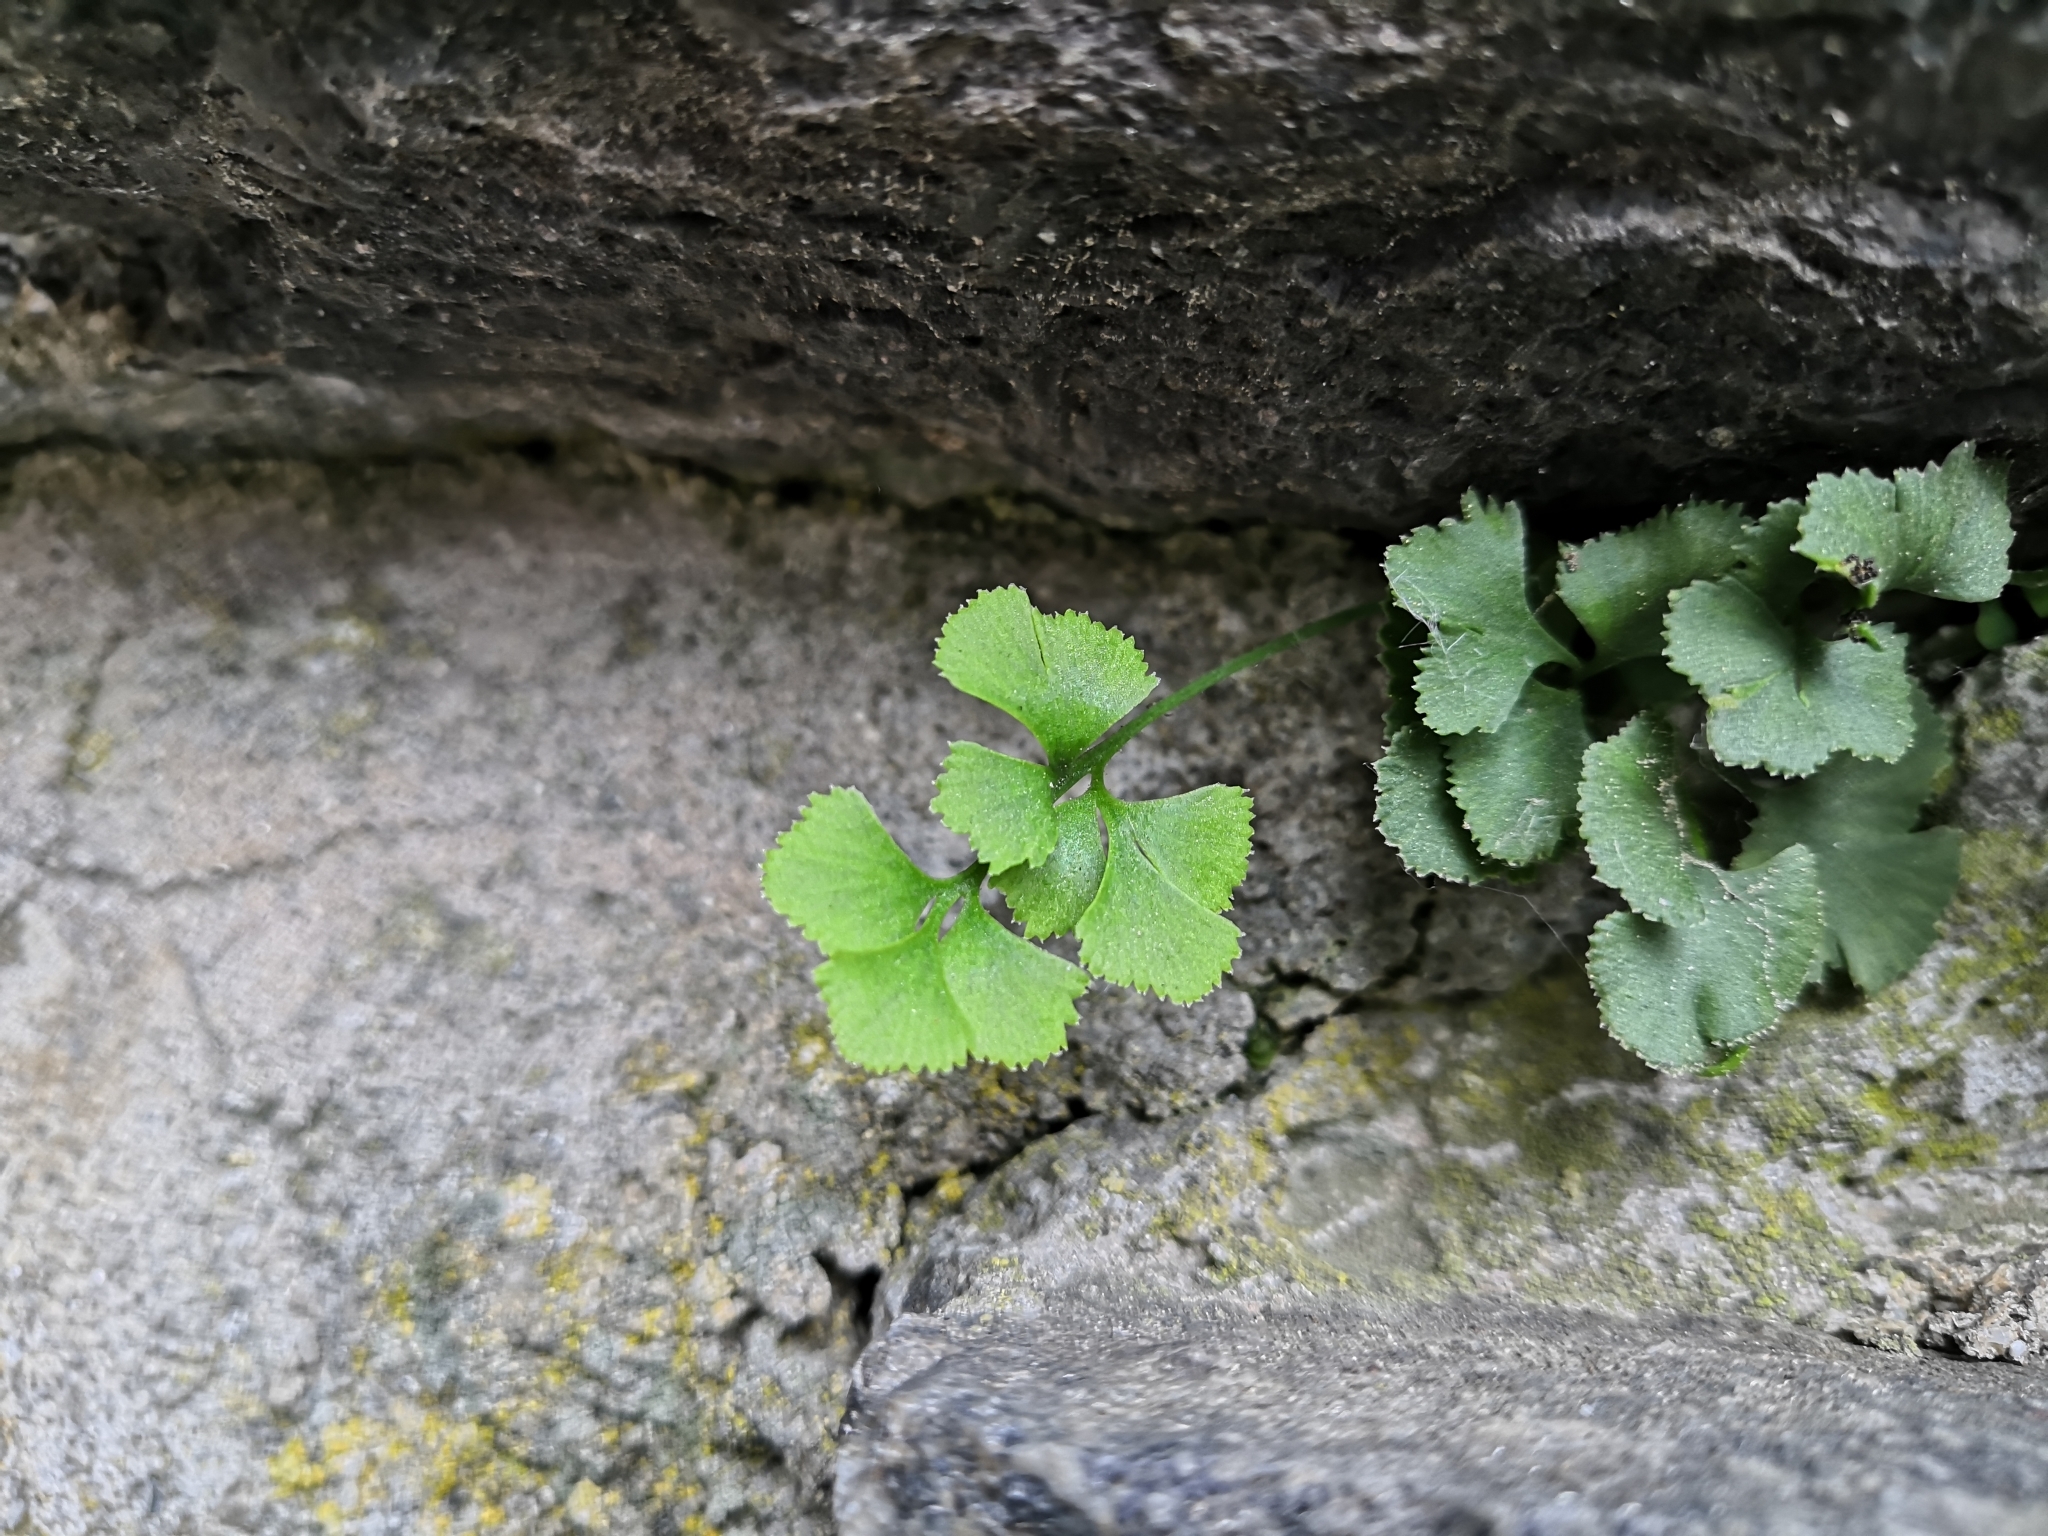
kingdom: Plantae
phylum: Tracheophyta
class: Polypodiopsida
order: Polypodiales
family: Aspleniaceae
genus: Asplenium
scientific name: Asplenium ruta-muraria
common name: Wall-rue
